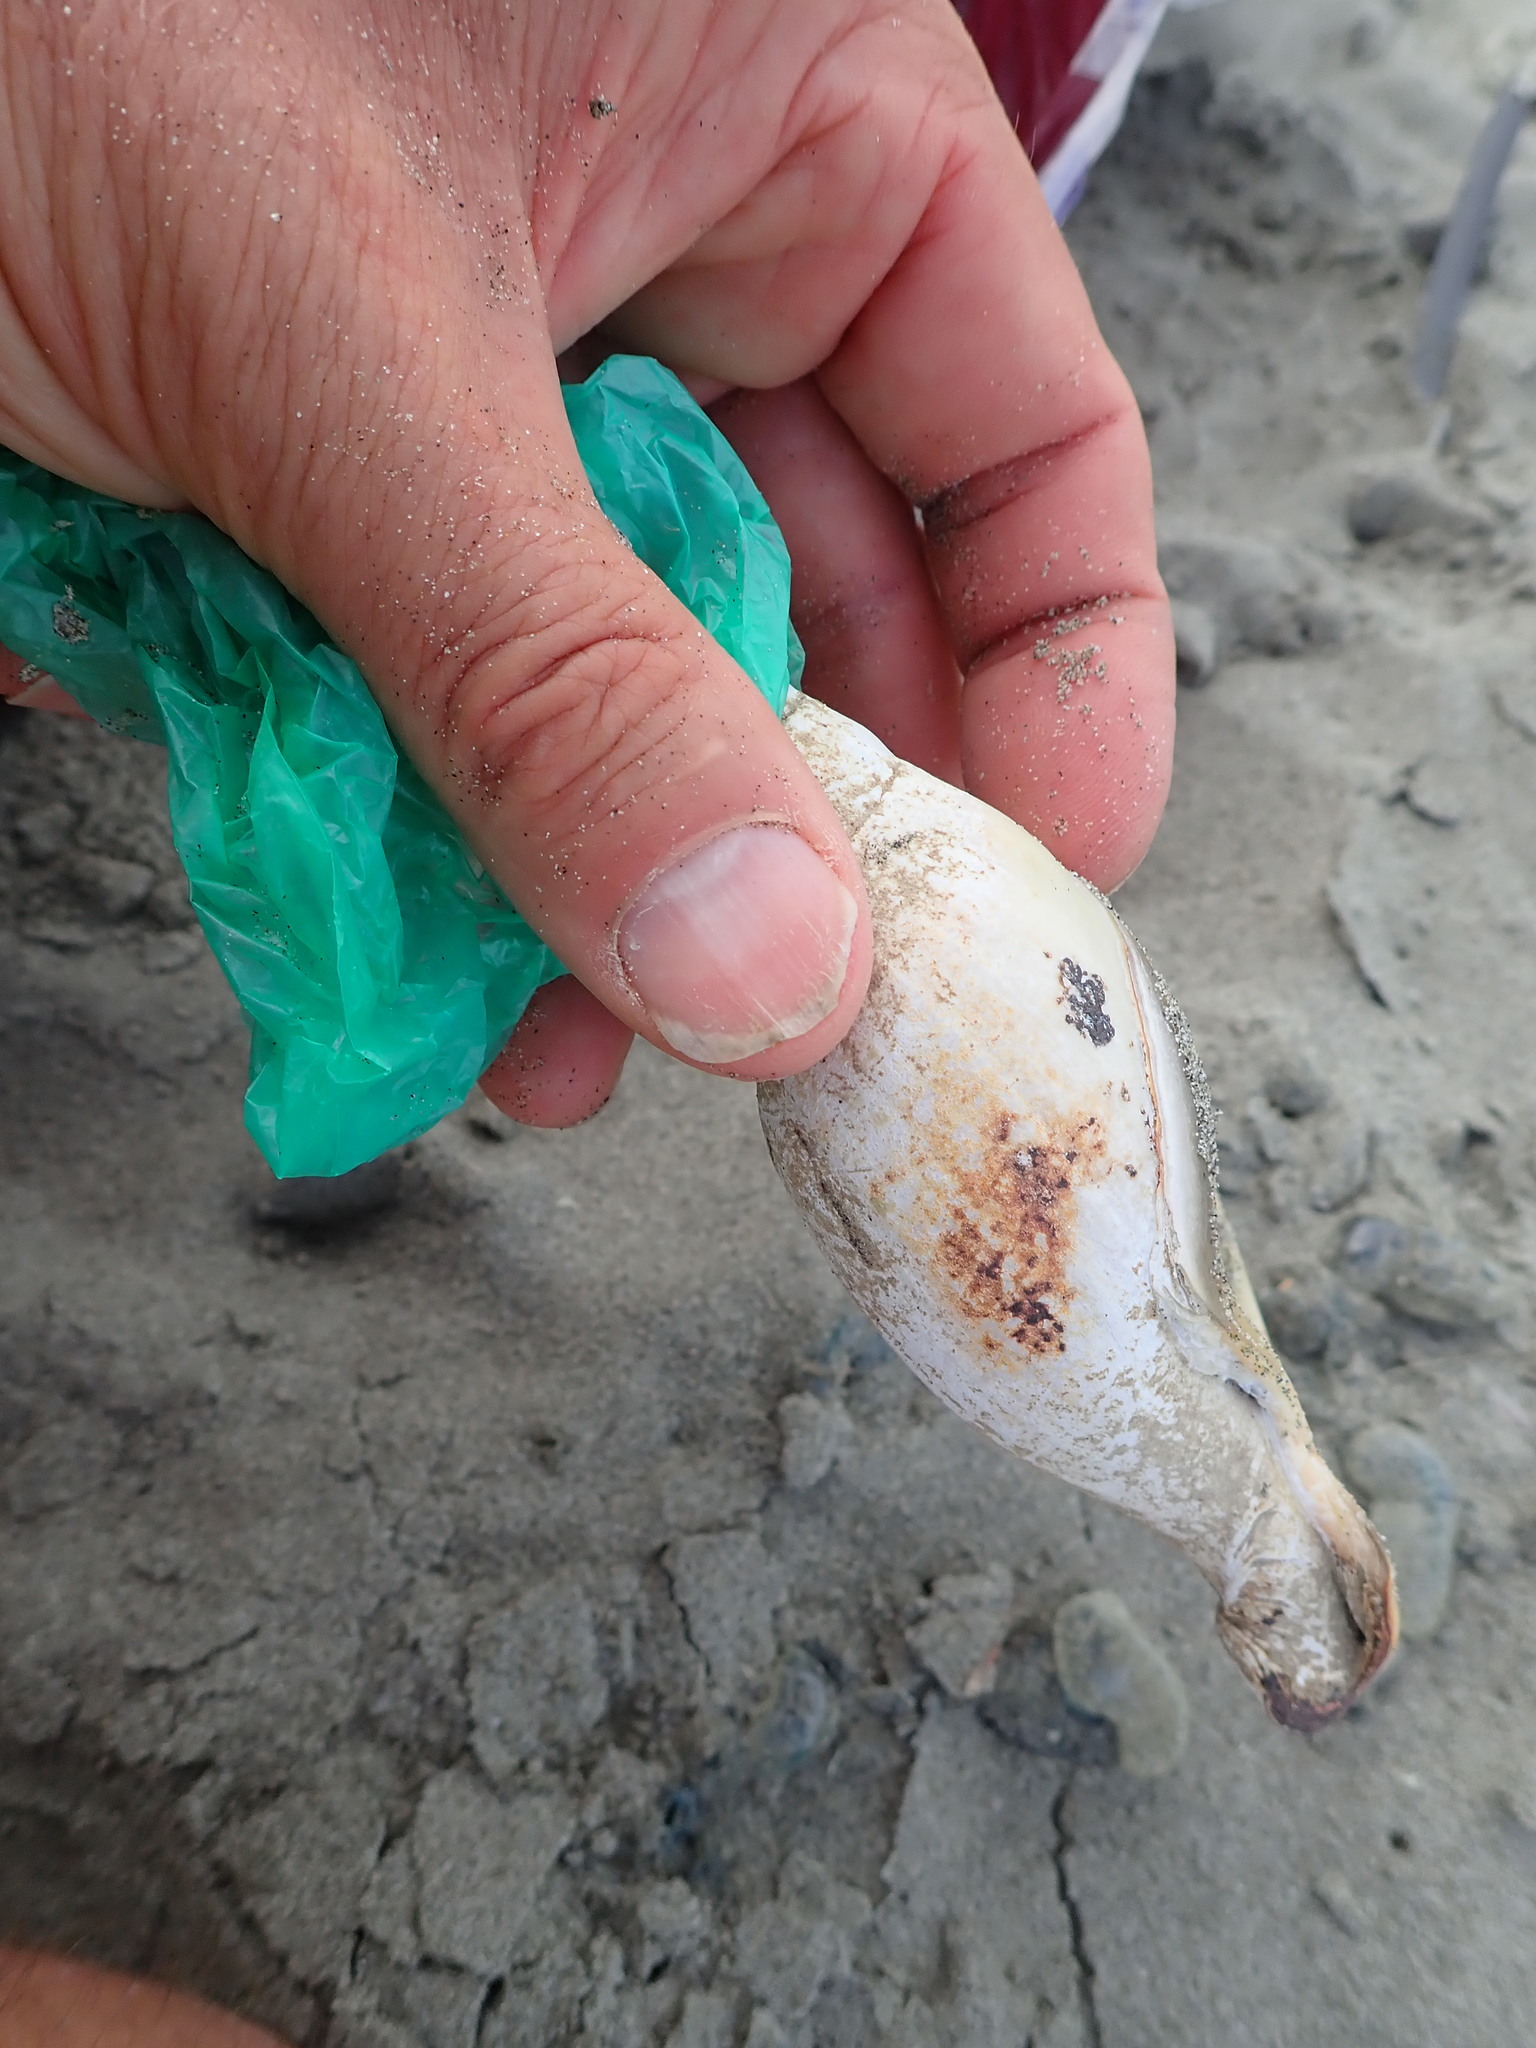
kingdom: Animalia
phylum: Mollusca
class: Gastropoda
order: Neogastropoda
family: Volutidae
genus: Alcithoe
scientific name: Alcithoe arabica
